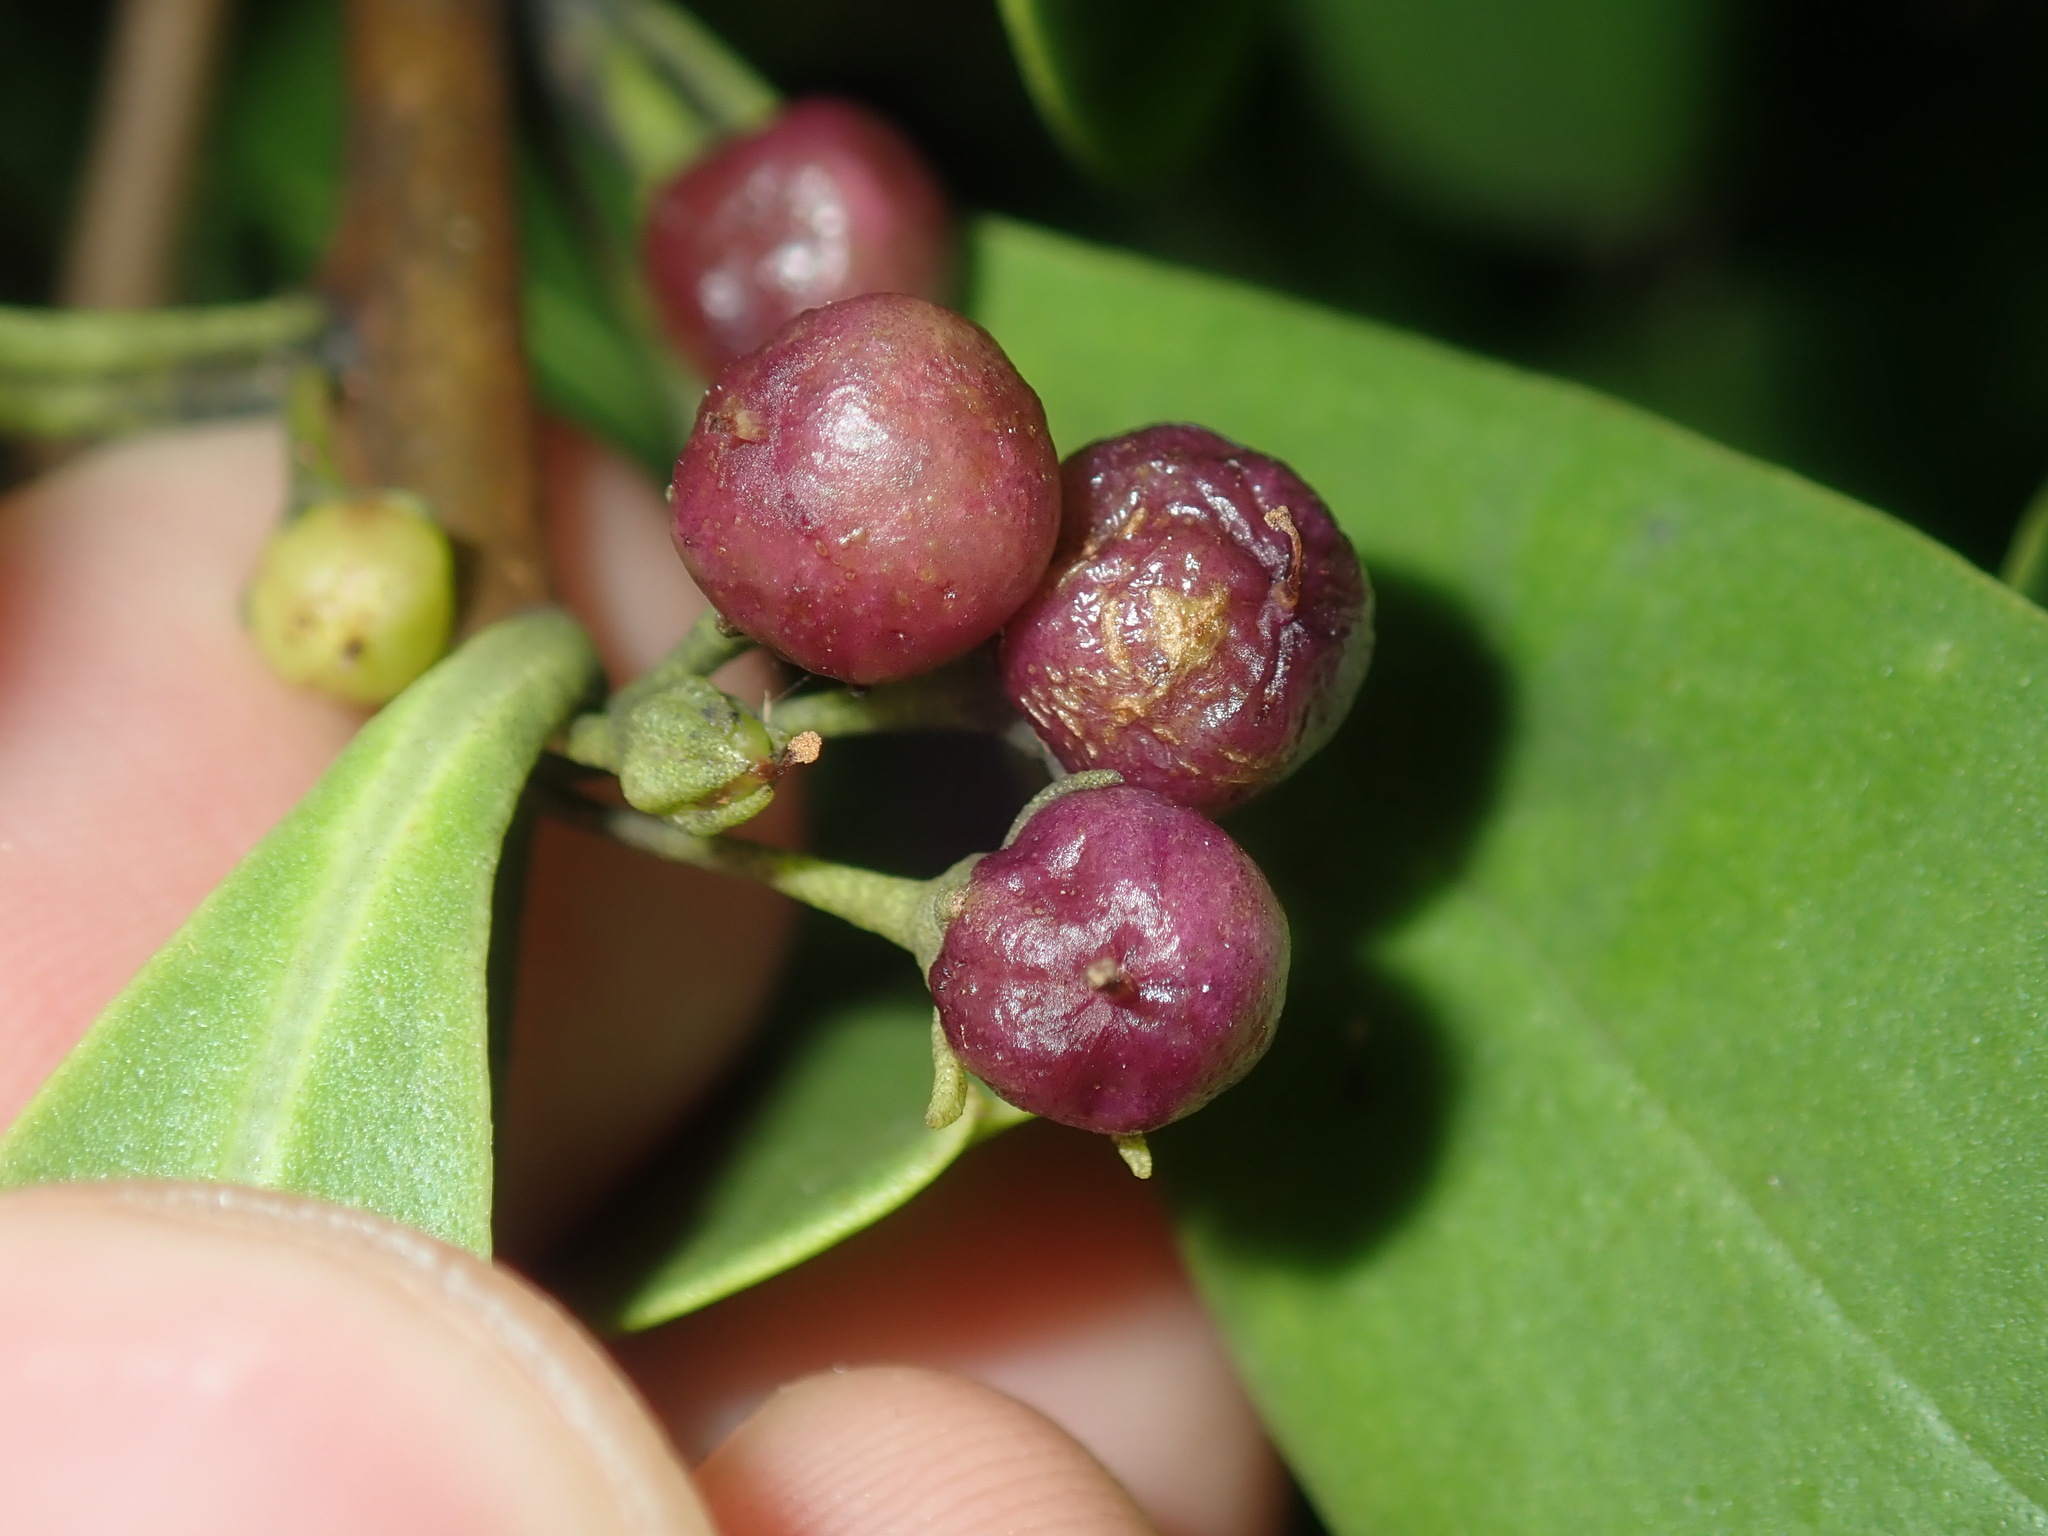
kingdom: Plantae
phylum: Tracheophyta
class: Magnoliopsida
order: Lamiales
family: Scrophulariaceae
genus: Myoporum
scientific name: Myoporum boninense
